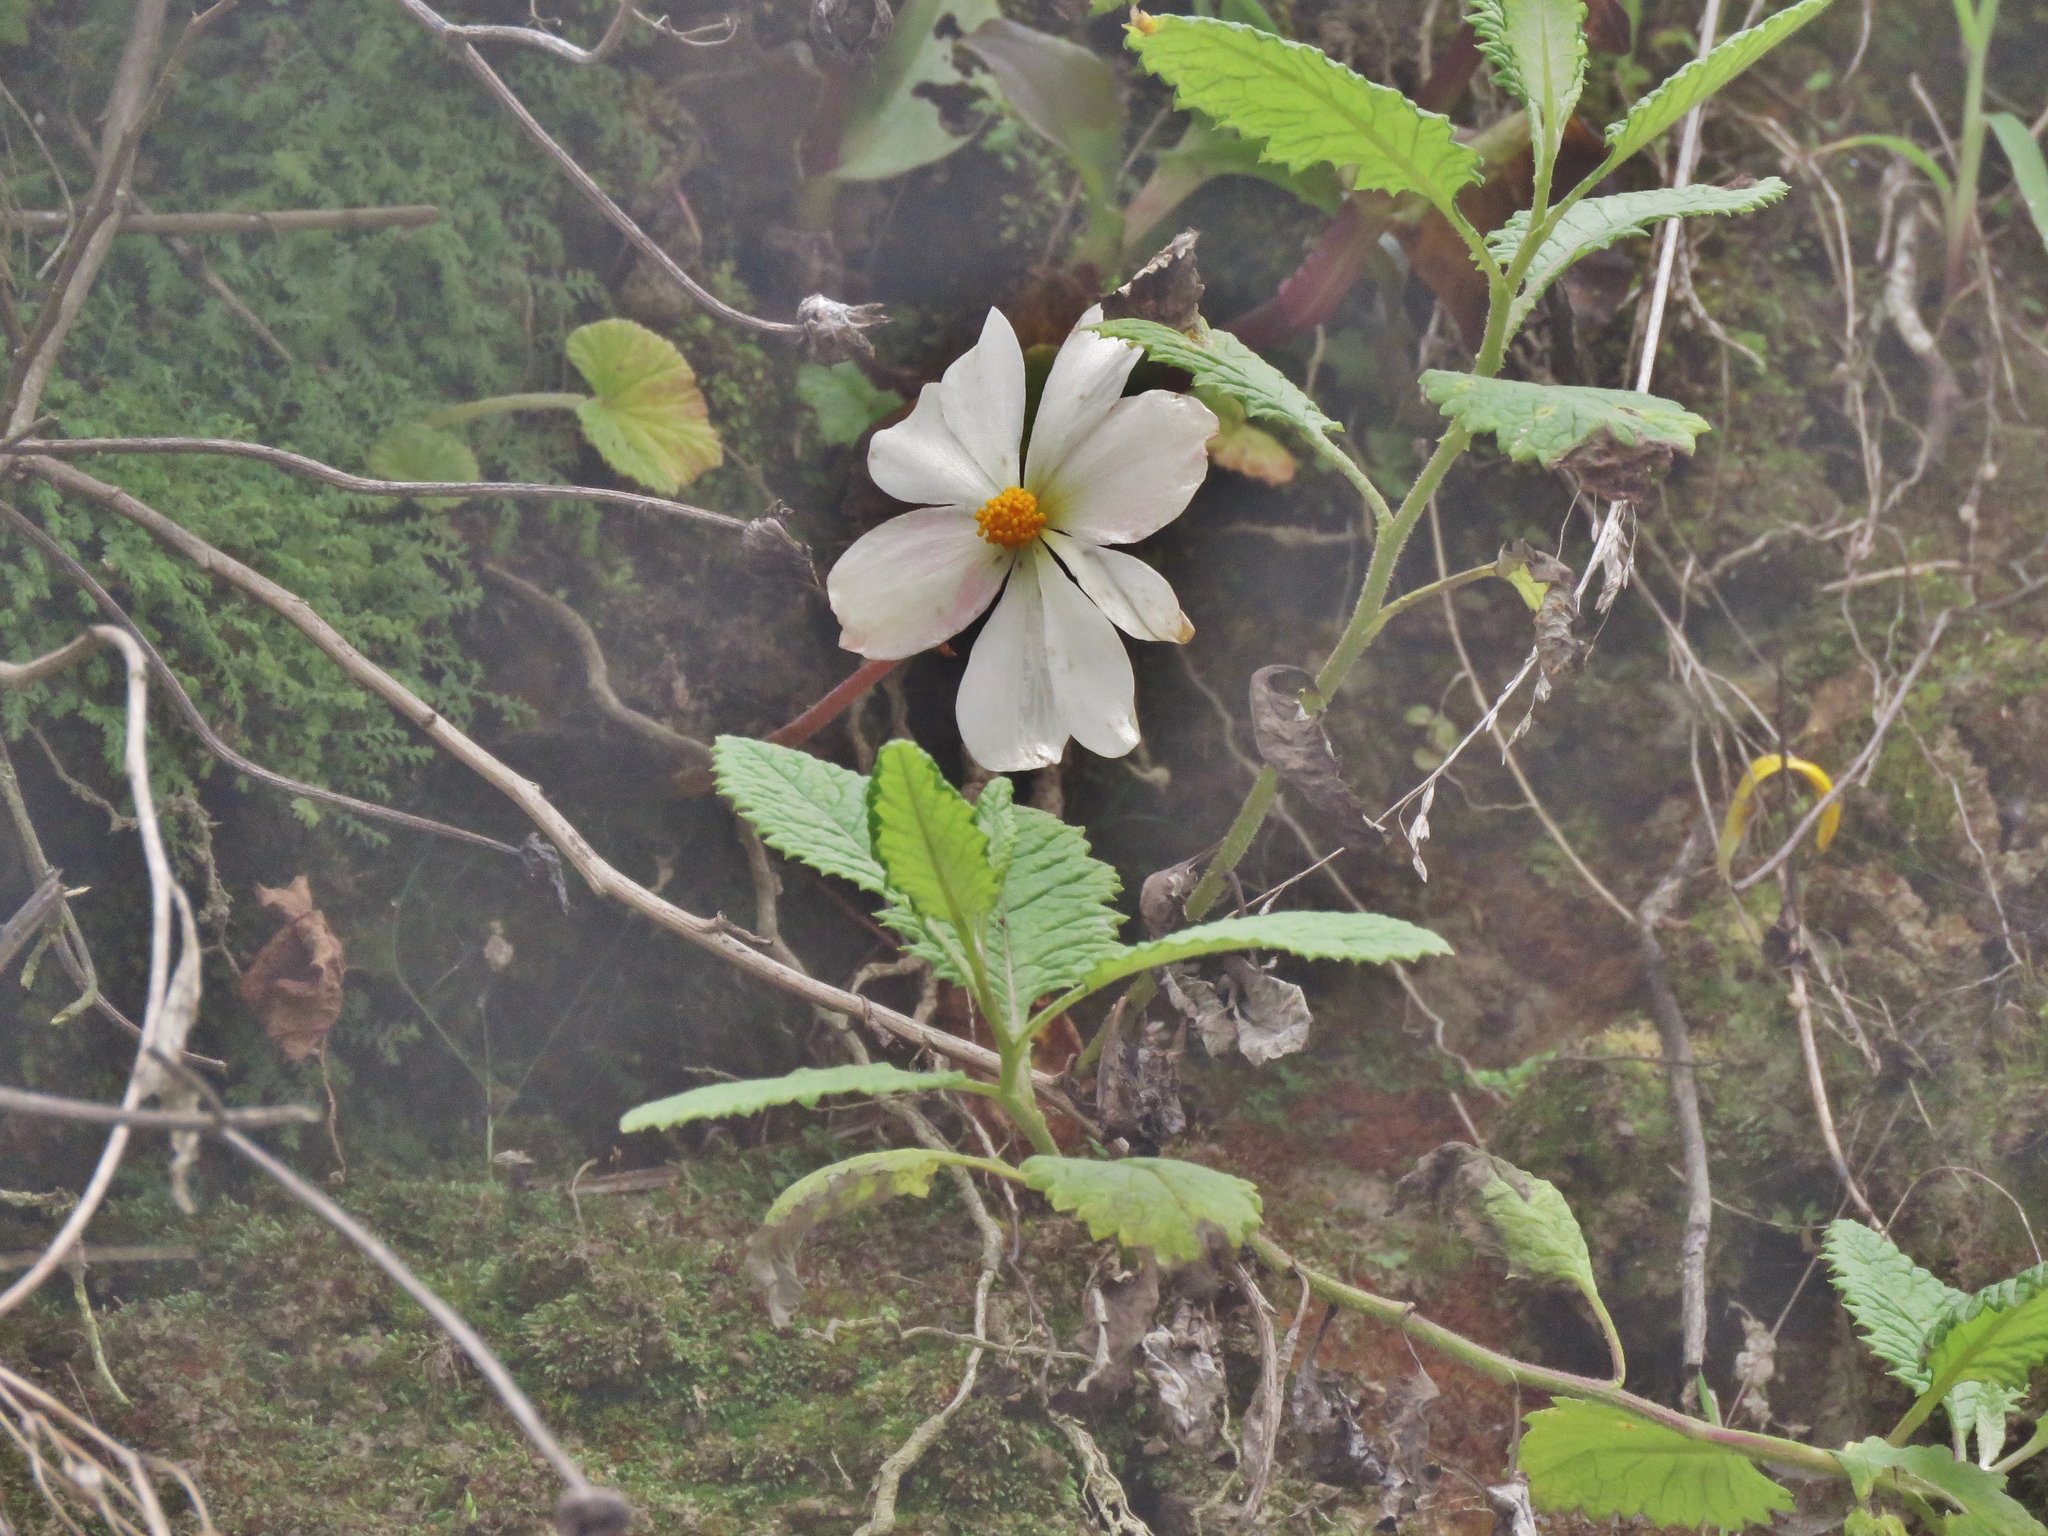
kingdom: Plantae
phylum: Tracheophyta
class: Magnoliopsida
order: Cucurbitales
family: Begoniaceae
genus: Begonia
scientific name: Begonia octopetala
